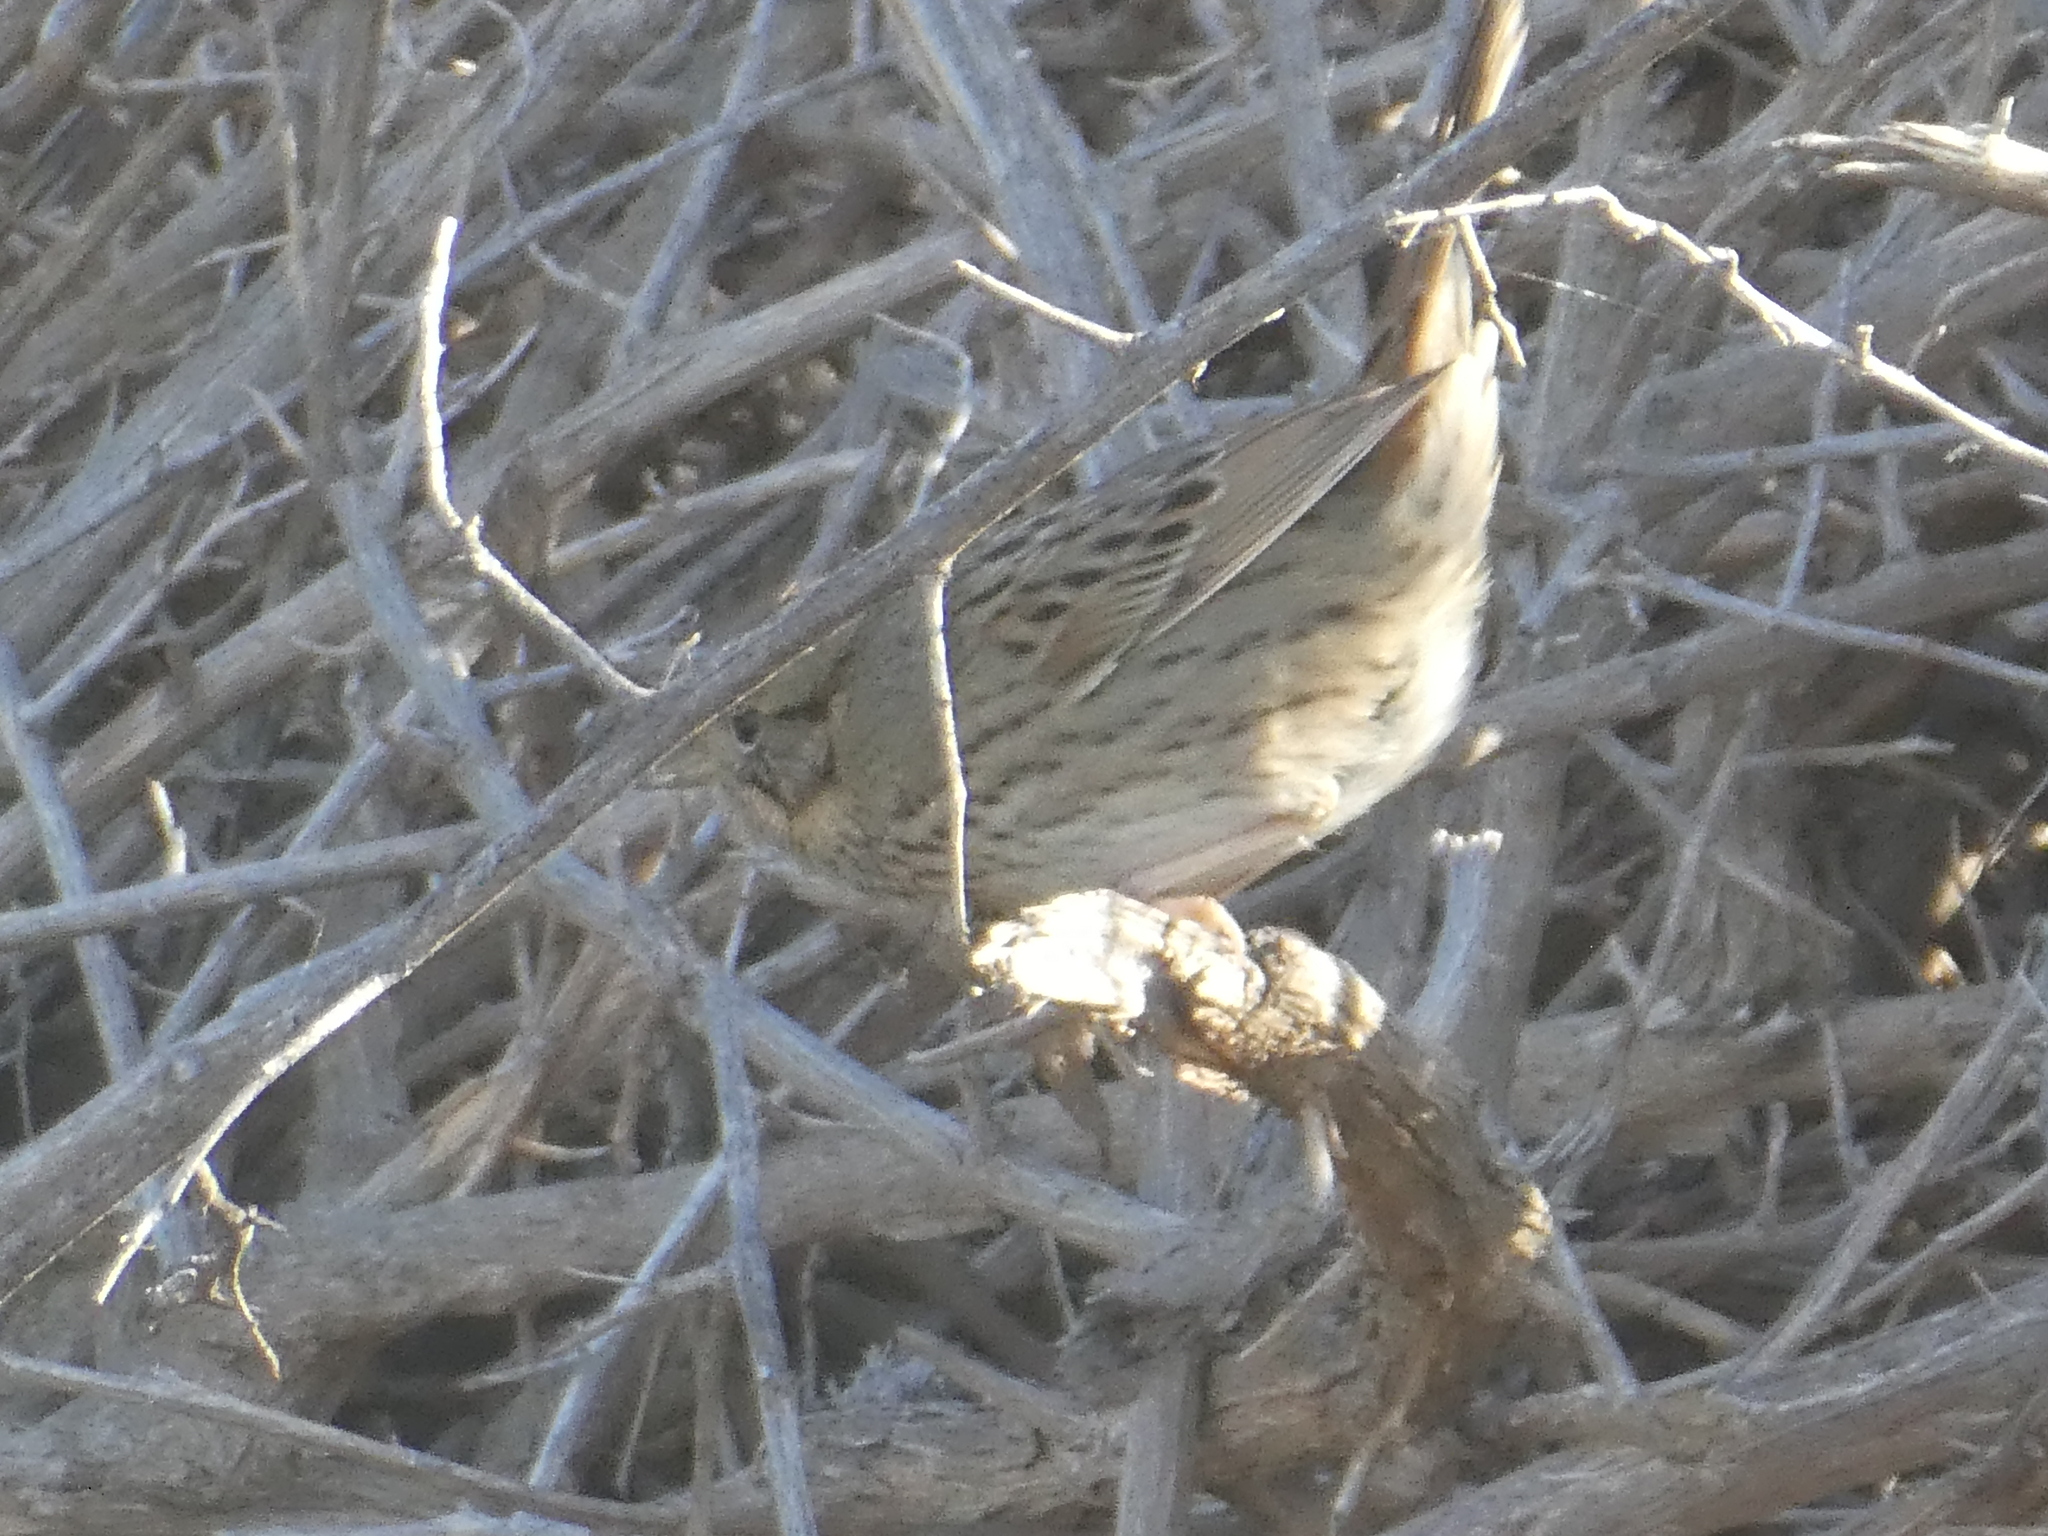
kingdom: Animalia
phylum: Chordata
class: Aves
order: Passeriformes
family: Passerellidae
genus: Melospiza
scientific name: Melospiza lincolnii
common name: Lincoln's sparrow
